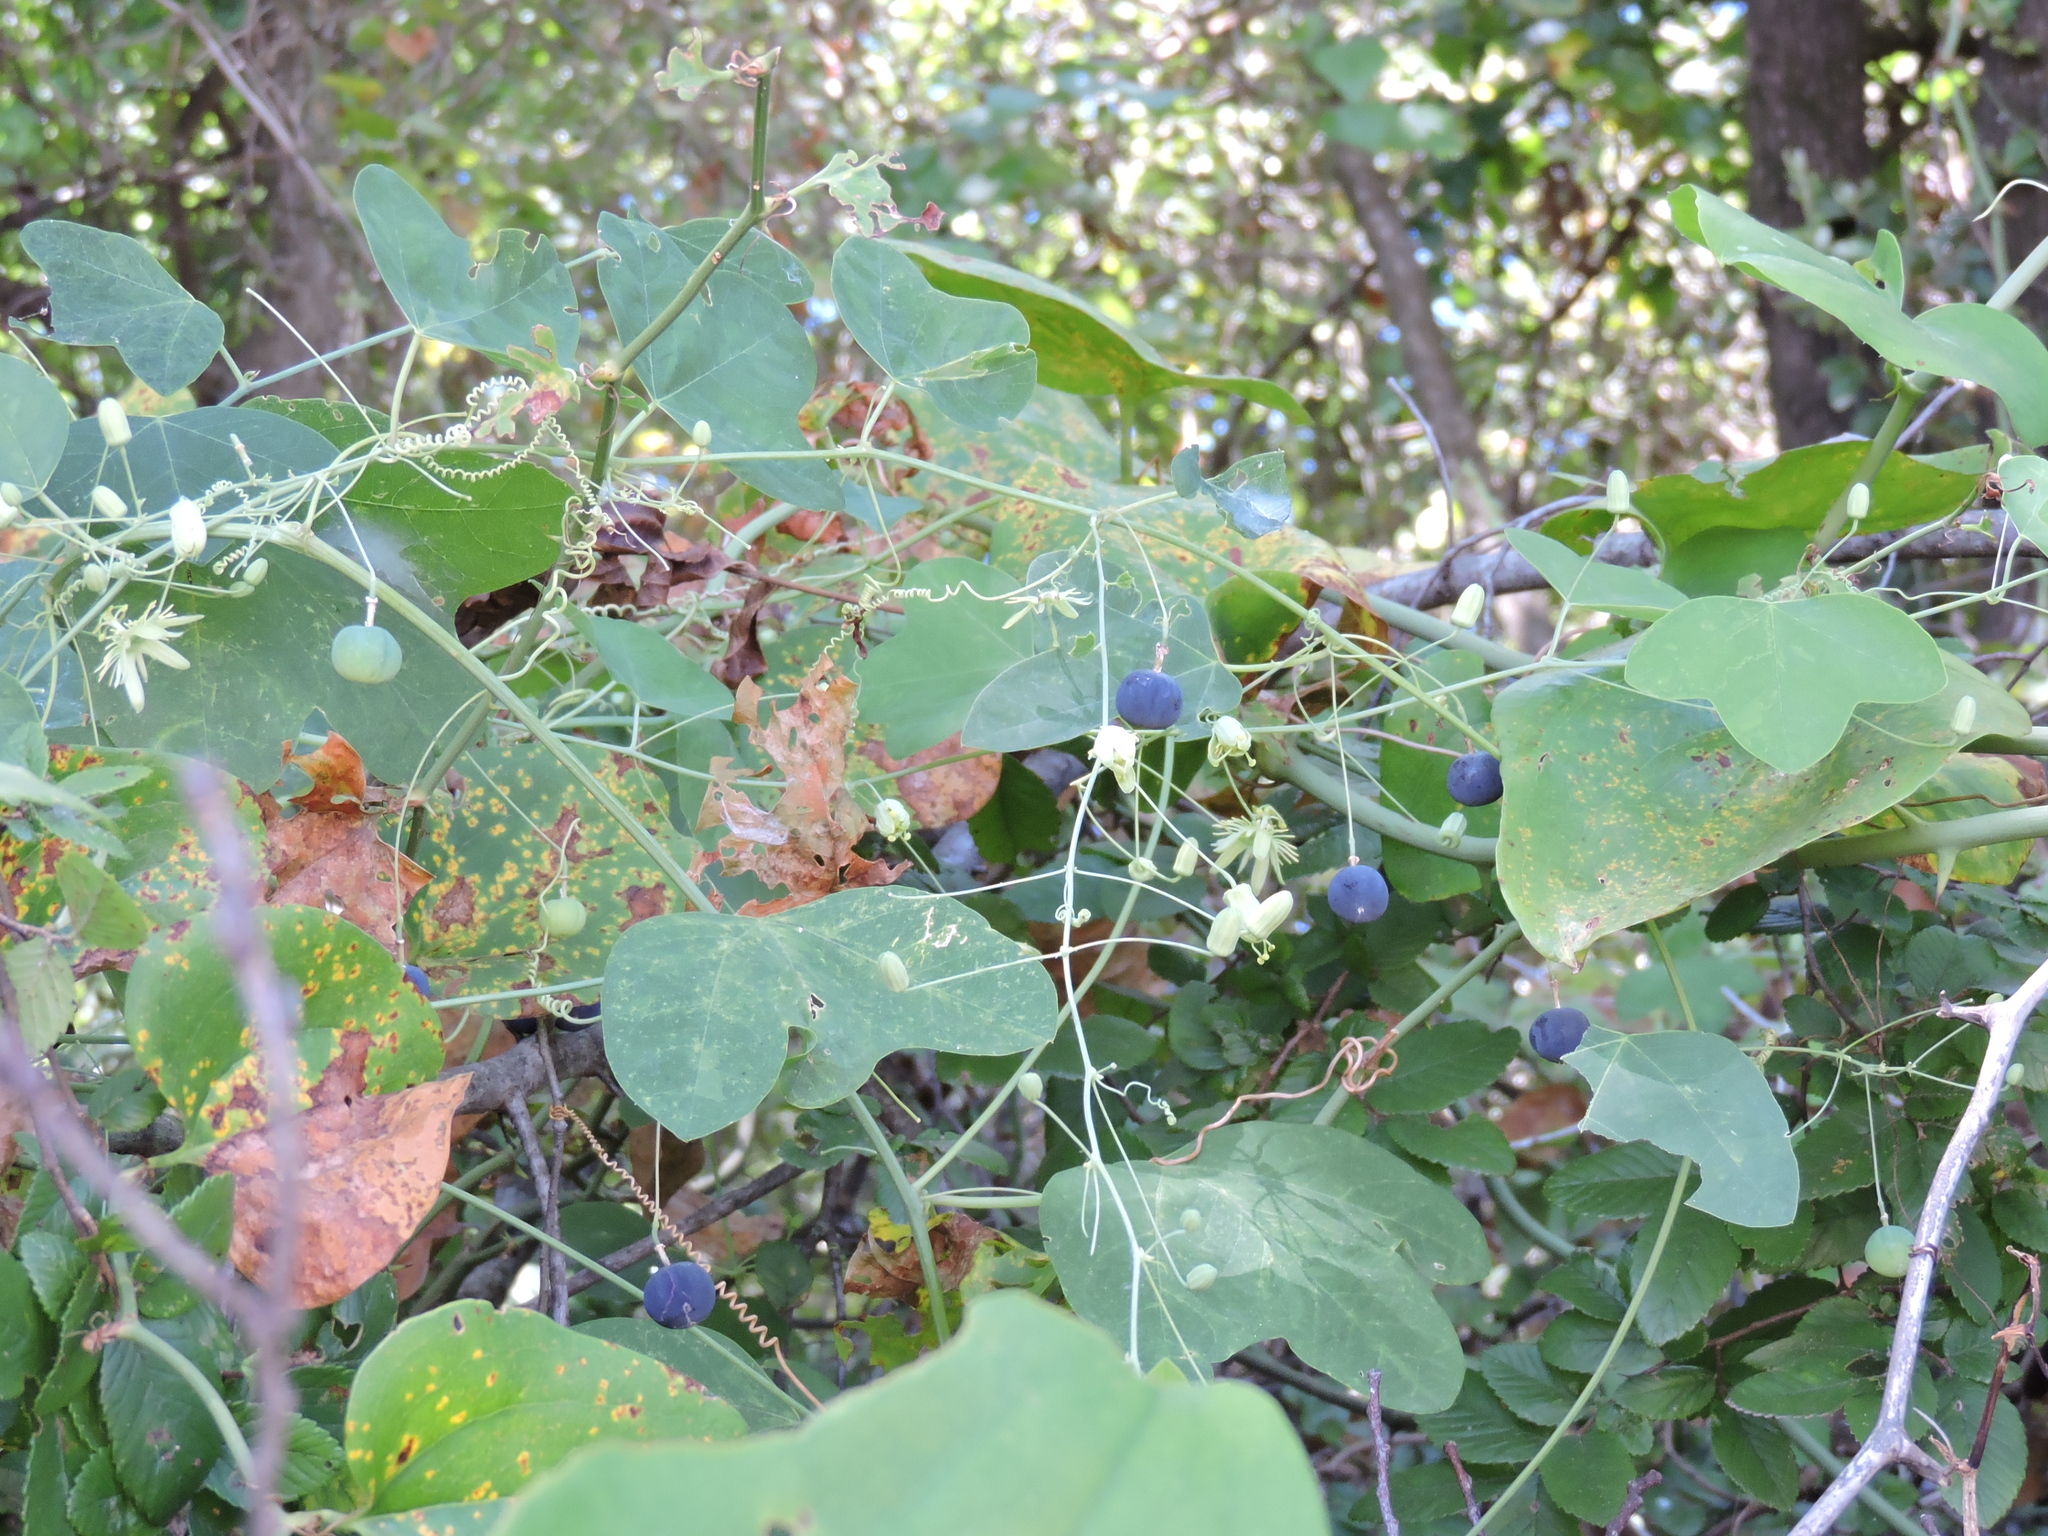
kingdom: Plantae
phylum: Tracheophyta
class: Magnoliopsida
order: Malpighiales
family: Passifloraceae
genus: Passiflora
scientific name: Passiflora lutea
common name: Yellow passionflower
